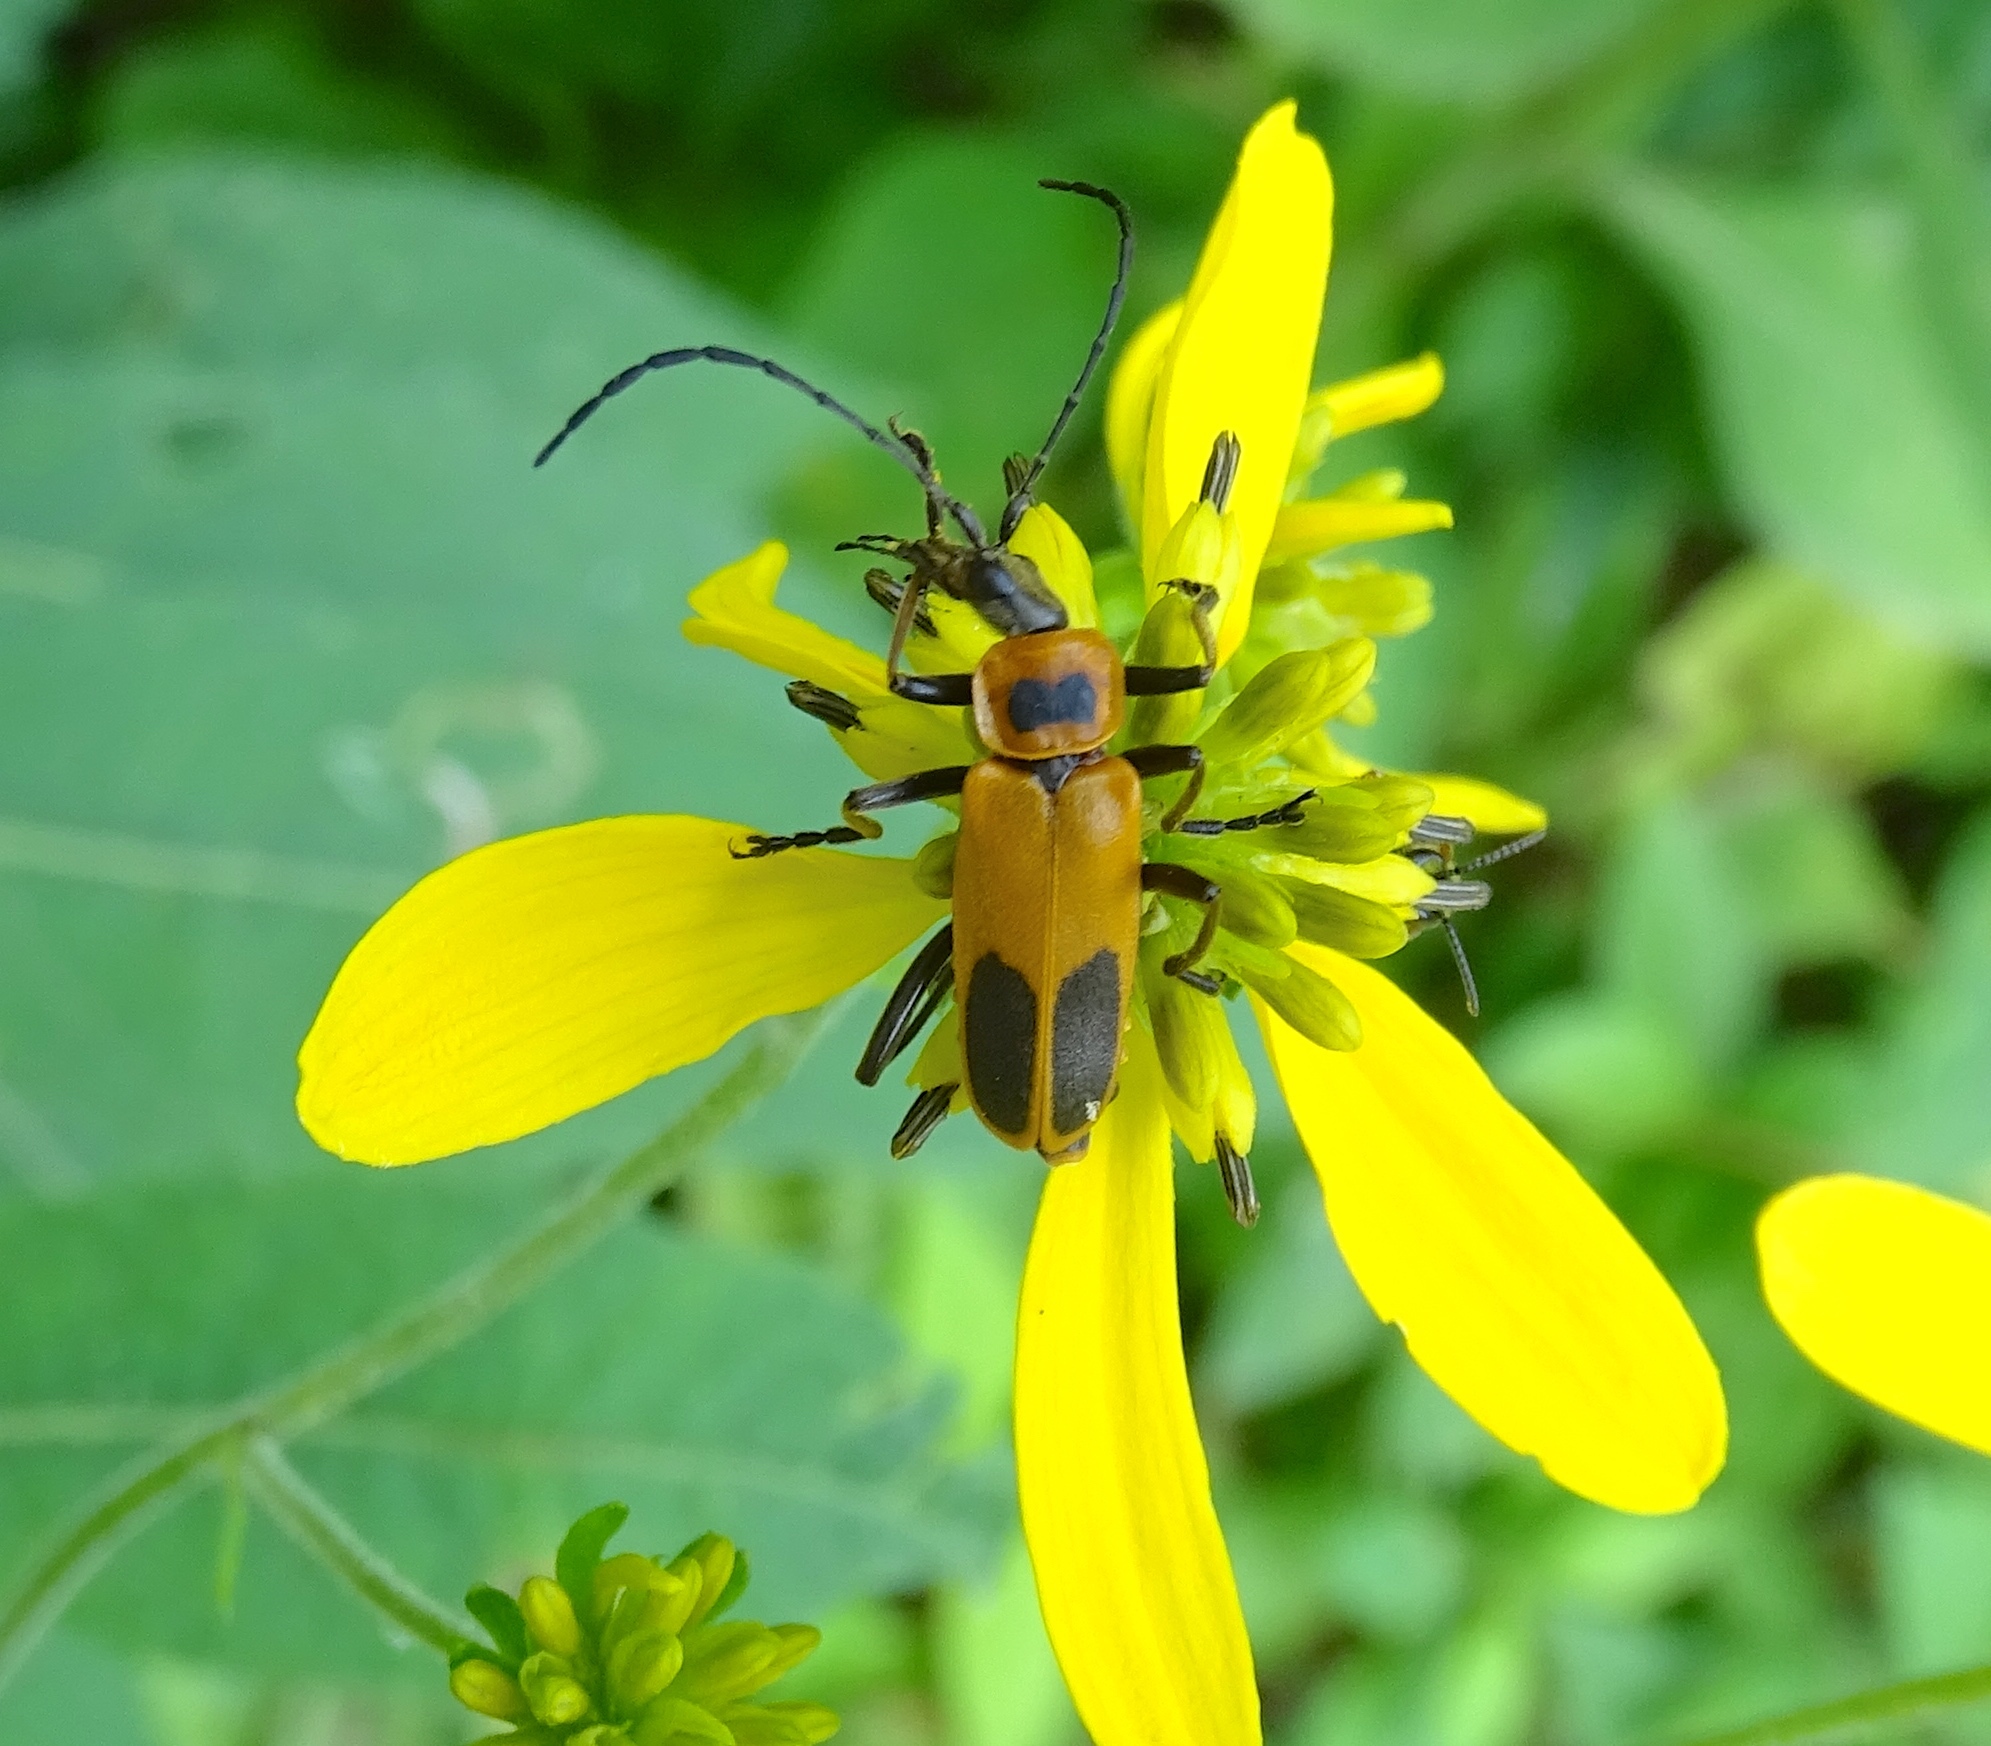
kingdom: Animalia
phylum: Arthropoda
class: Insecta
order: Coleoptera
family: Cantharidae
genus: Chauliognathus
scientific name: Chauliognathus pensylvanicus
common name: Goldenrod soldier beetle
